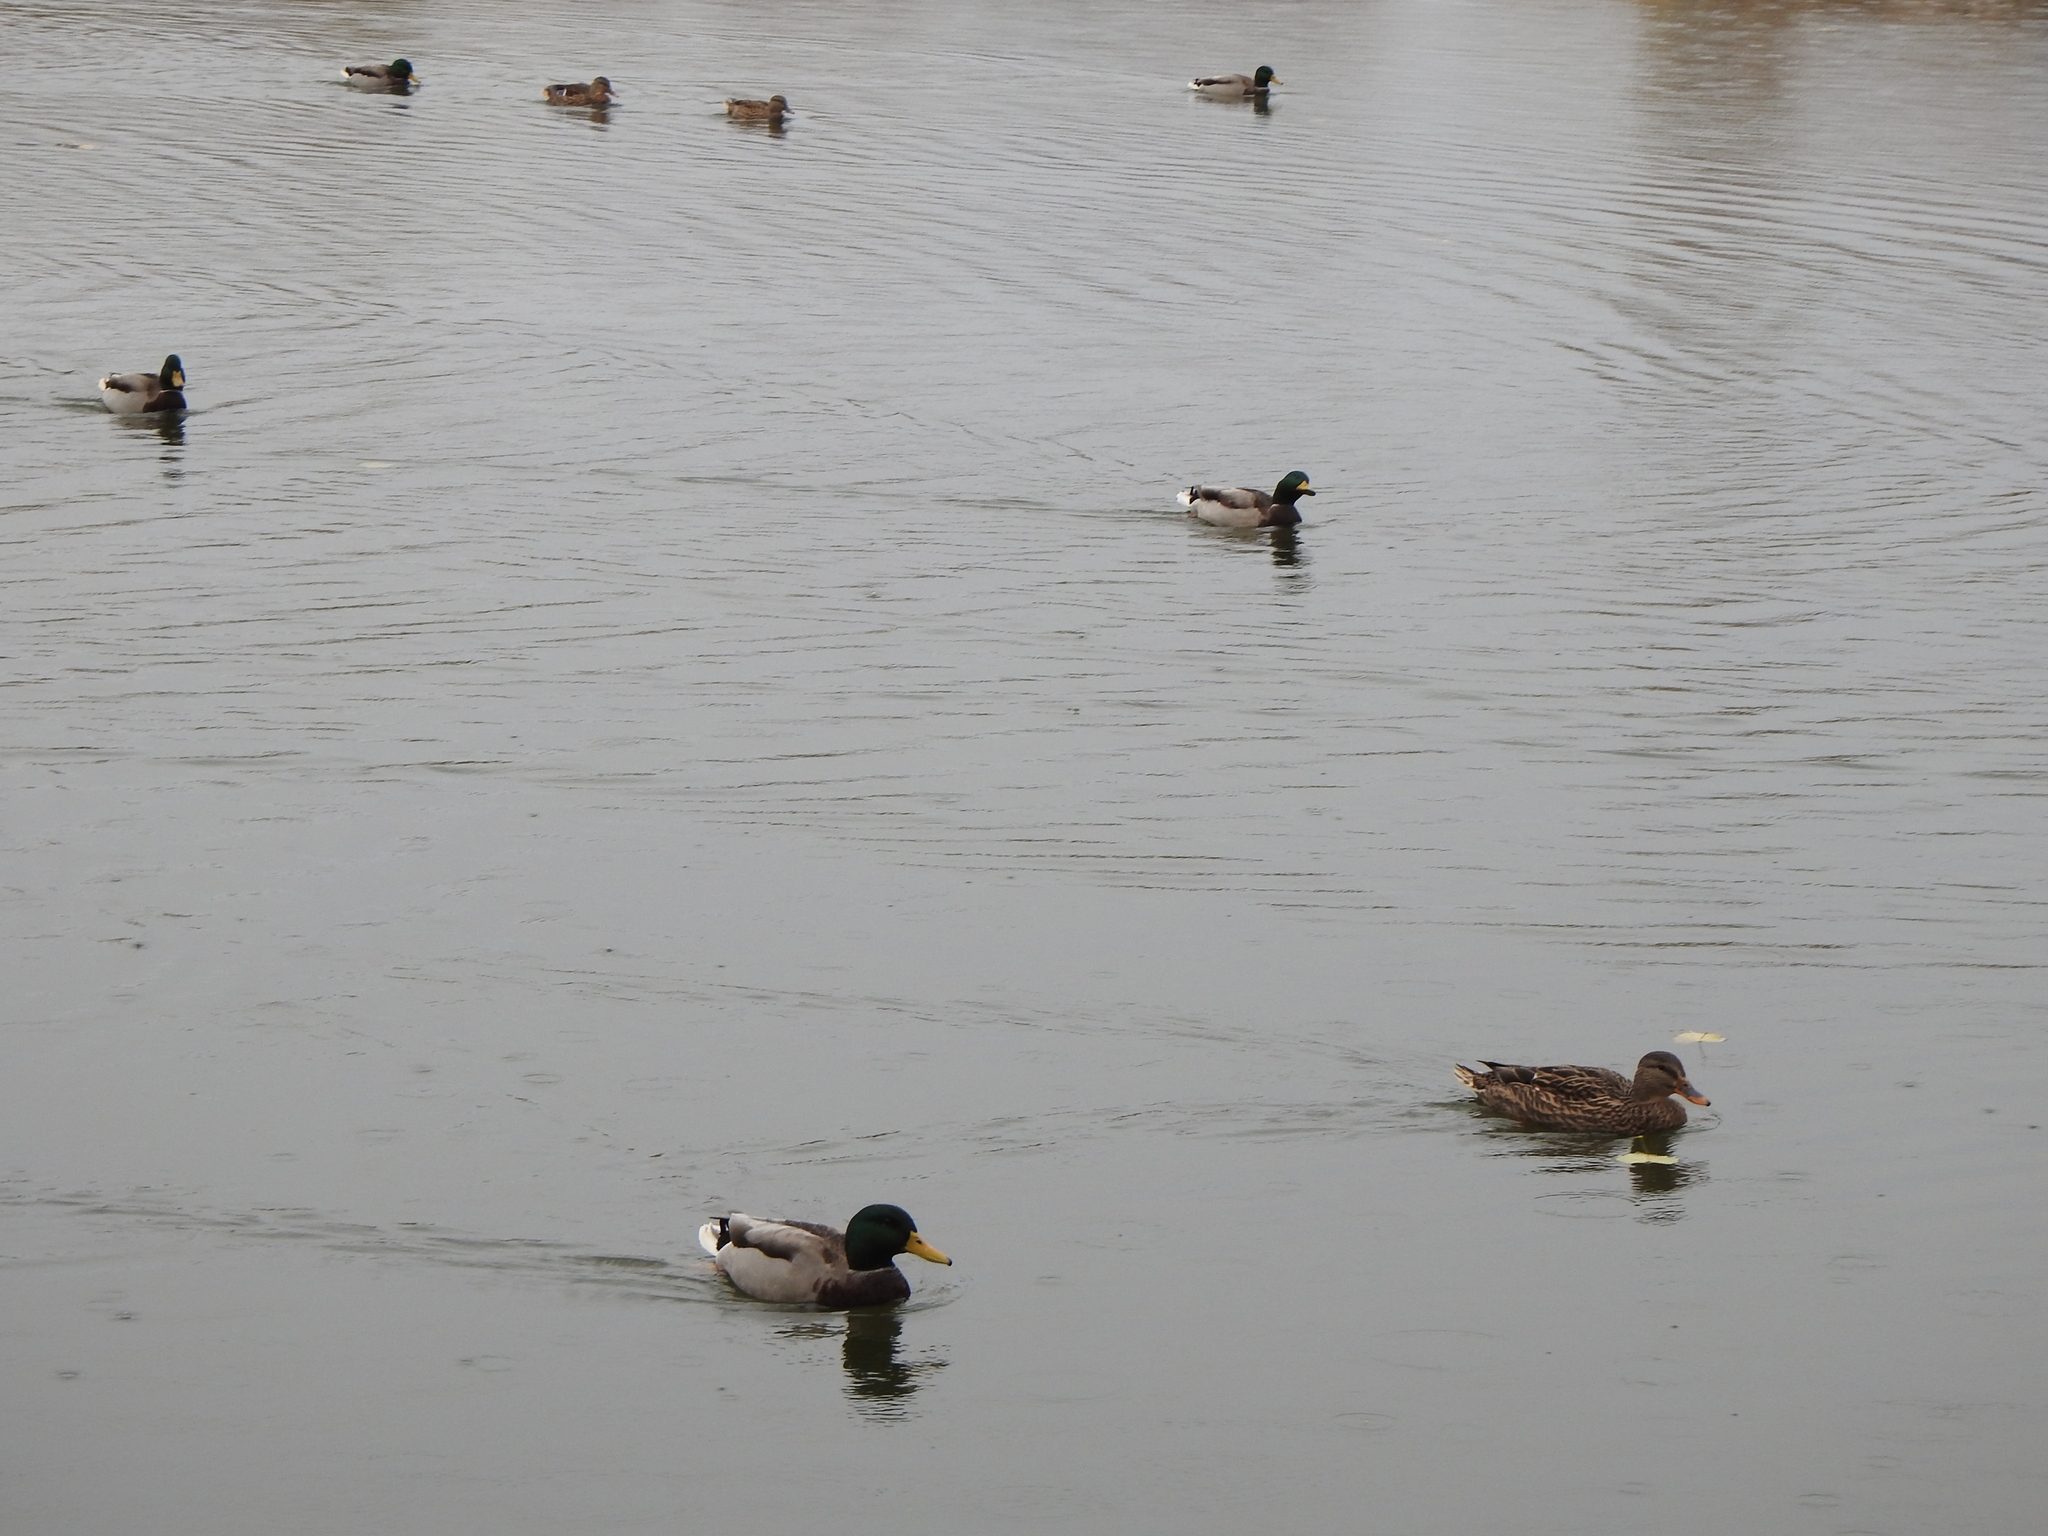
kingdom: Animalia
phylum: Chordata
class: Aves
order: Anseriformes
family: Anatidae
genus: Anas
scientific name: Anas platyrhynchos
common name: Mallard
